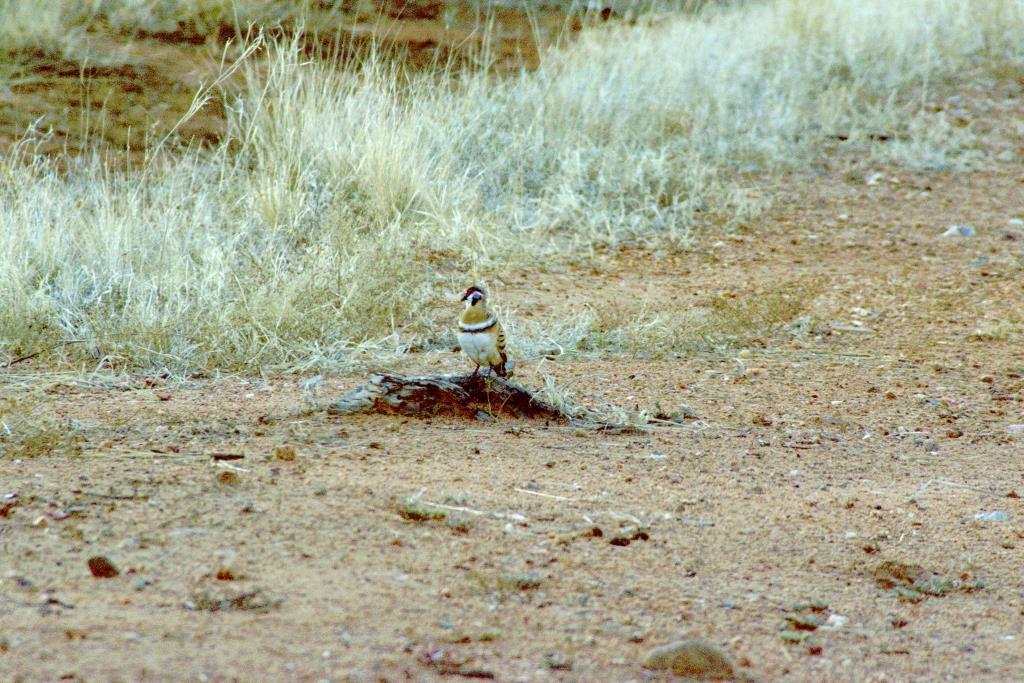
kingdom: Animalia
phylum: Chordata
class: Aves
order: Columbiformes
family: Columbidae
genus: Geophaps
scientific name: Geophaps plumifera
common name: Spinifex pigeon
